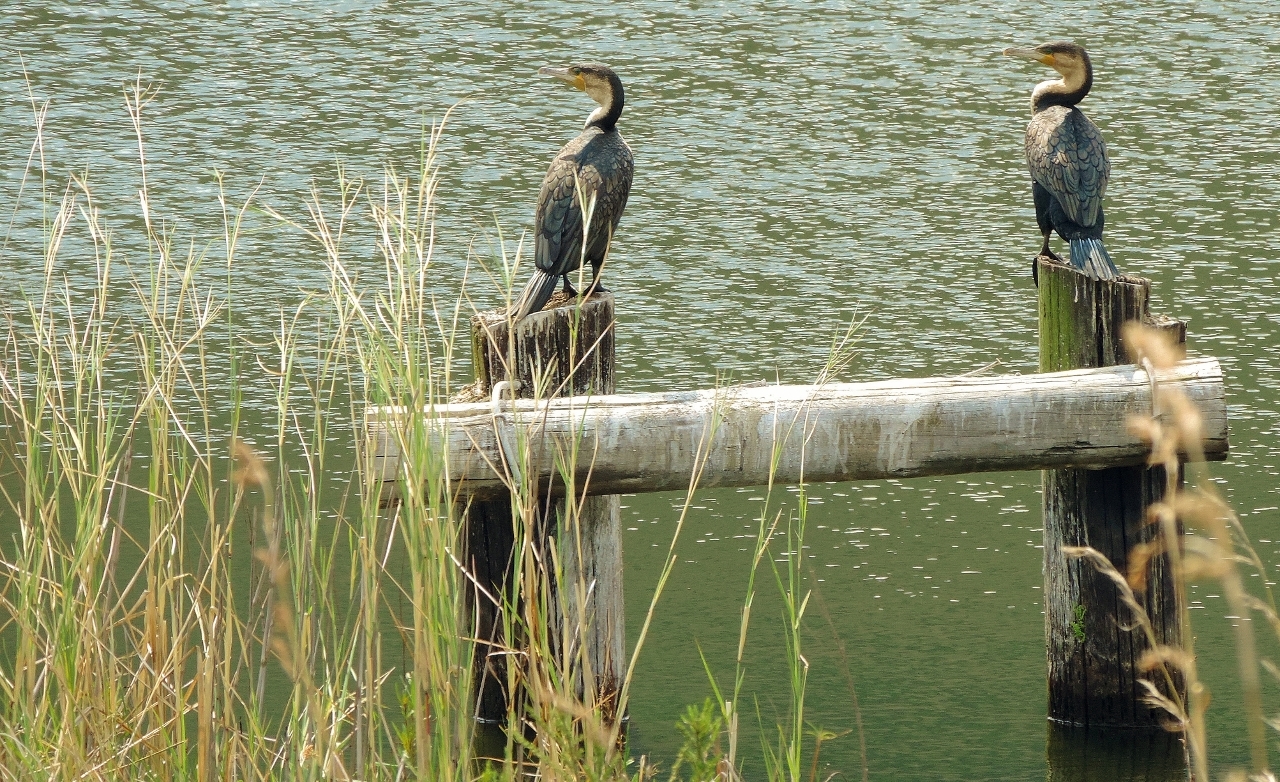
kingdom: Animalia
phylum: Chordata
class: Aves
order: Suliformes
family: Phalacrocoracidae
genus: Phalacrocorax
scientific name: Phalacrocorax carbo
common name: Great cormorant
